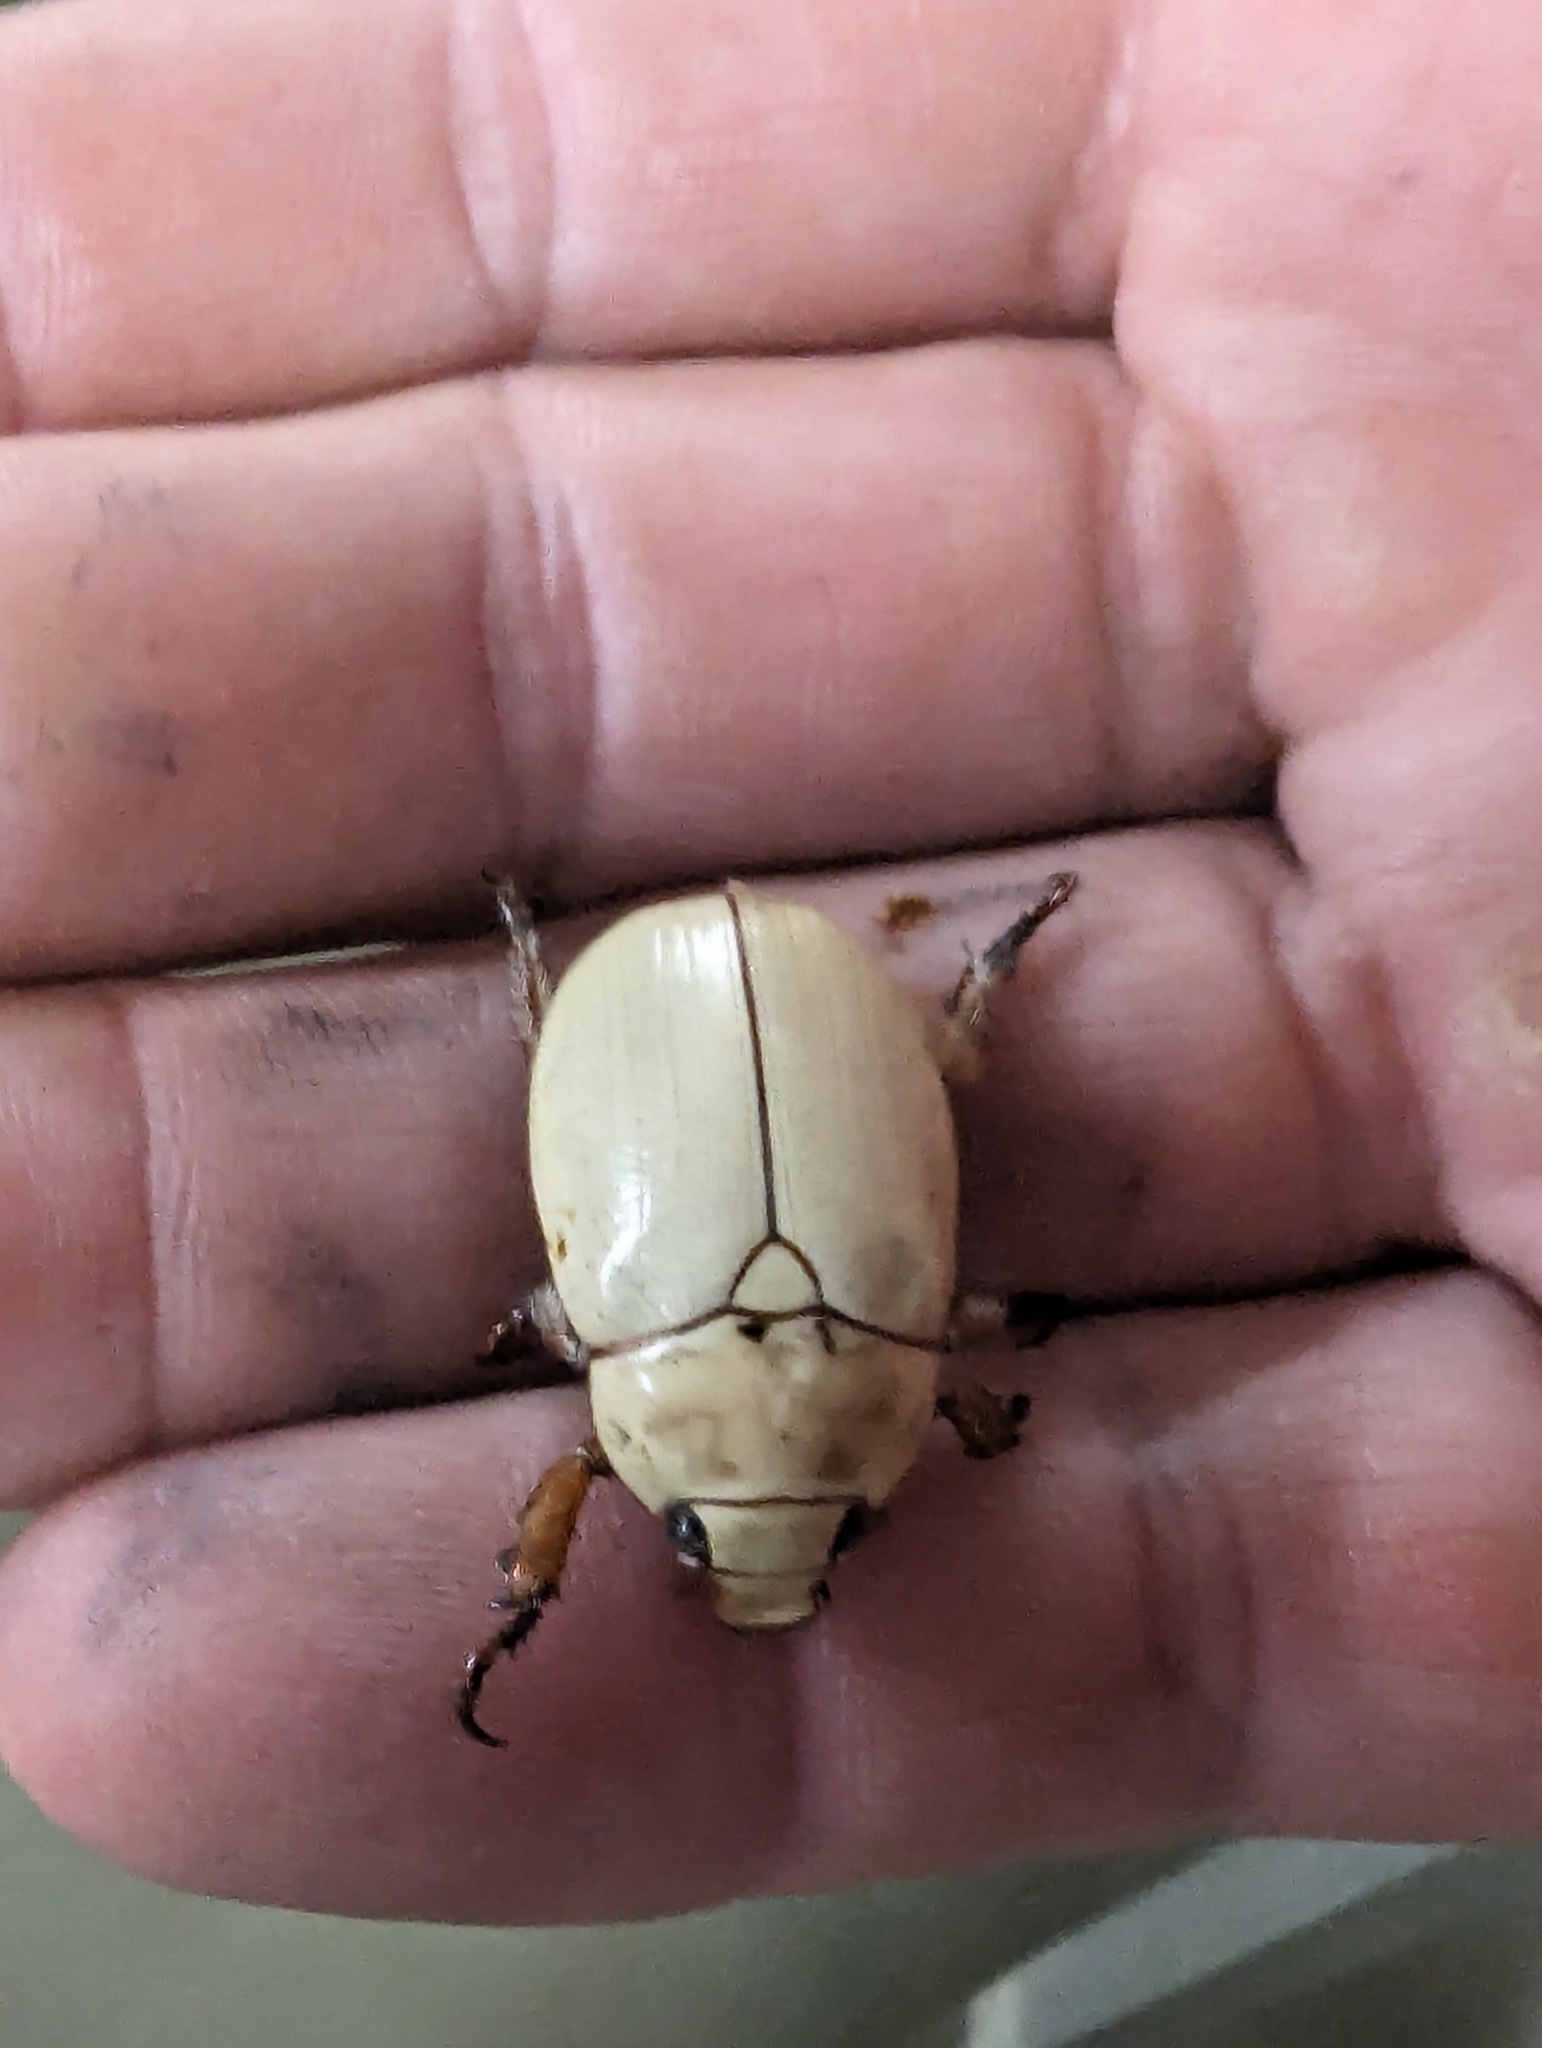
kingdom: Animalia
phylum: Arthropoda
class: Insecta
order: Coleoptera
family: Scarabaeidae
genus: Anoplognathus
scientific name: Anoplognathus macleayi
